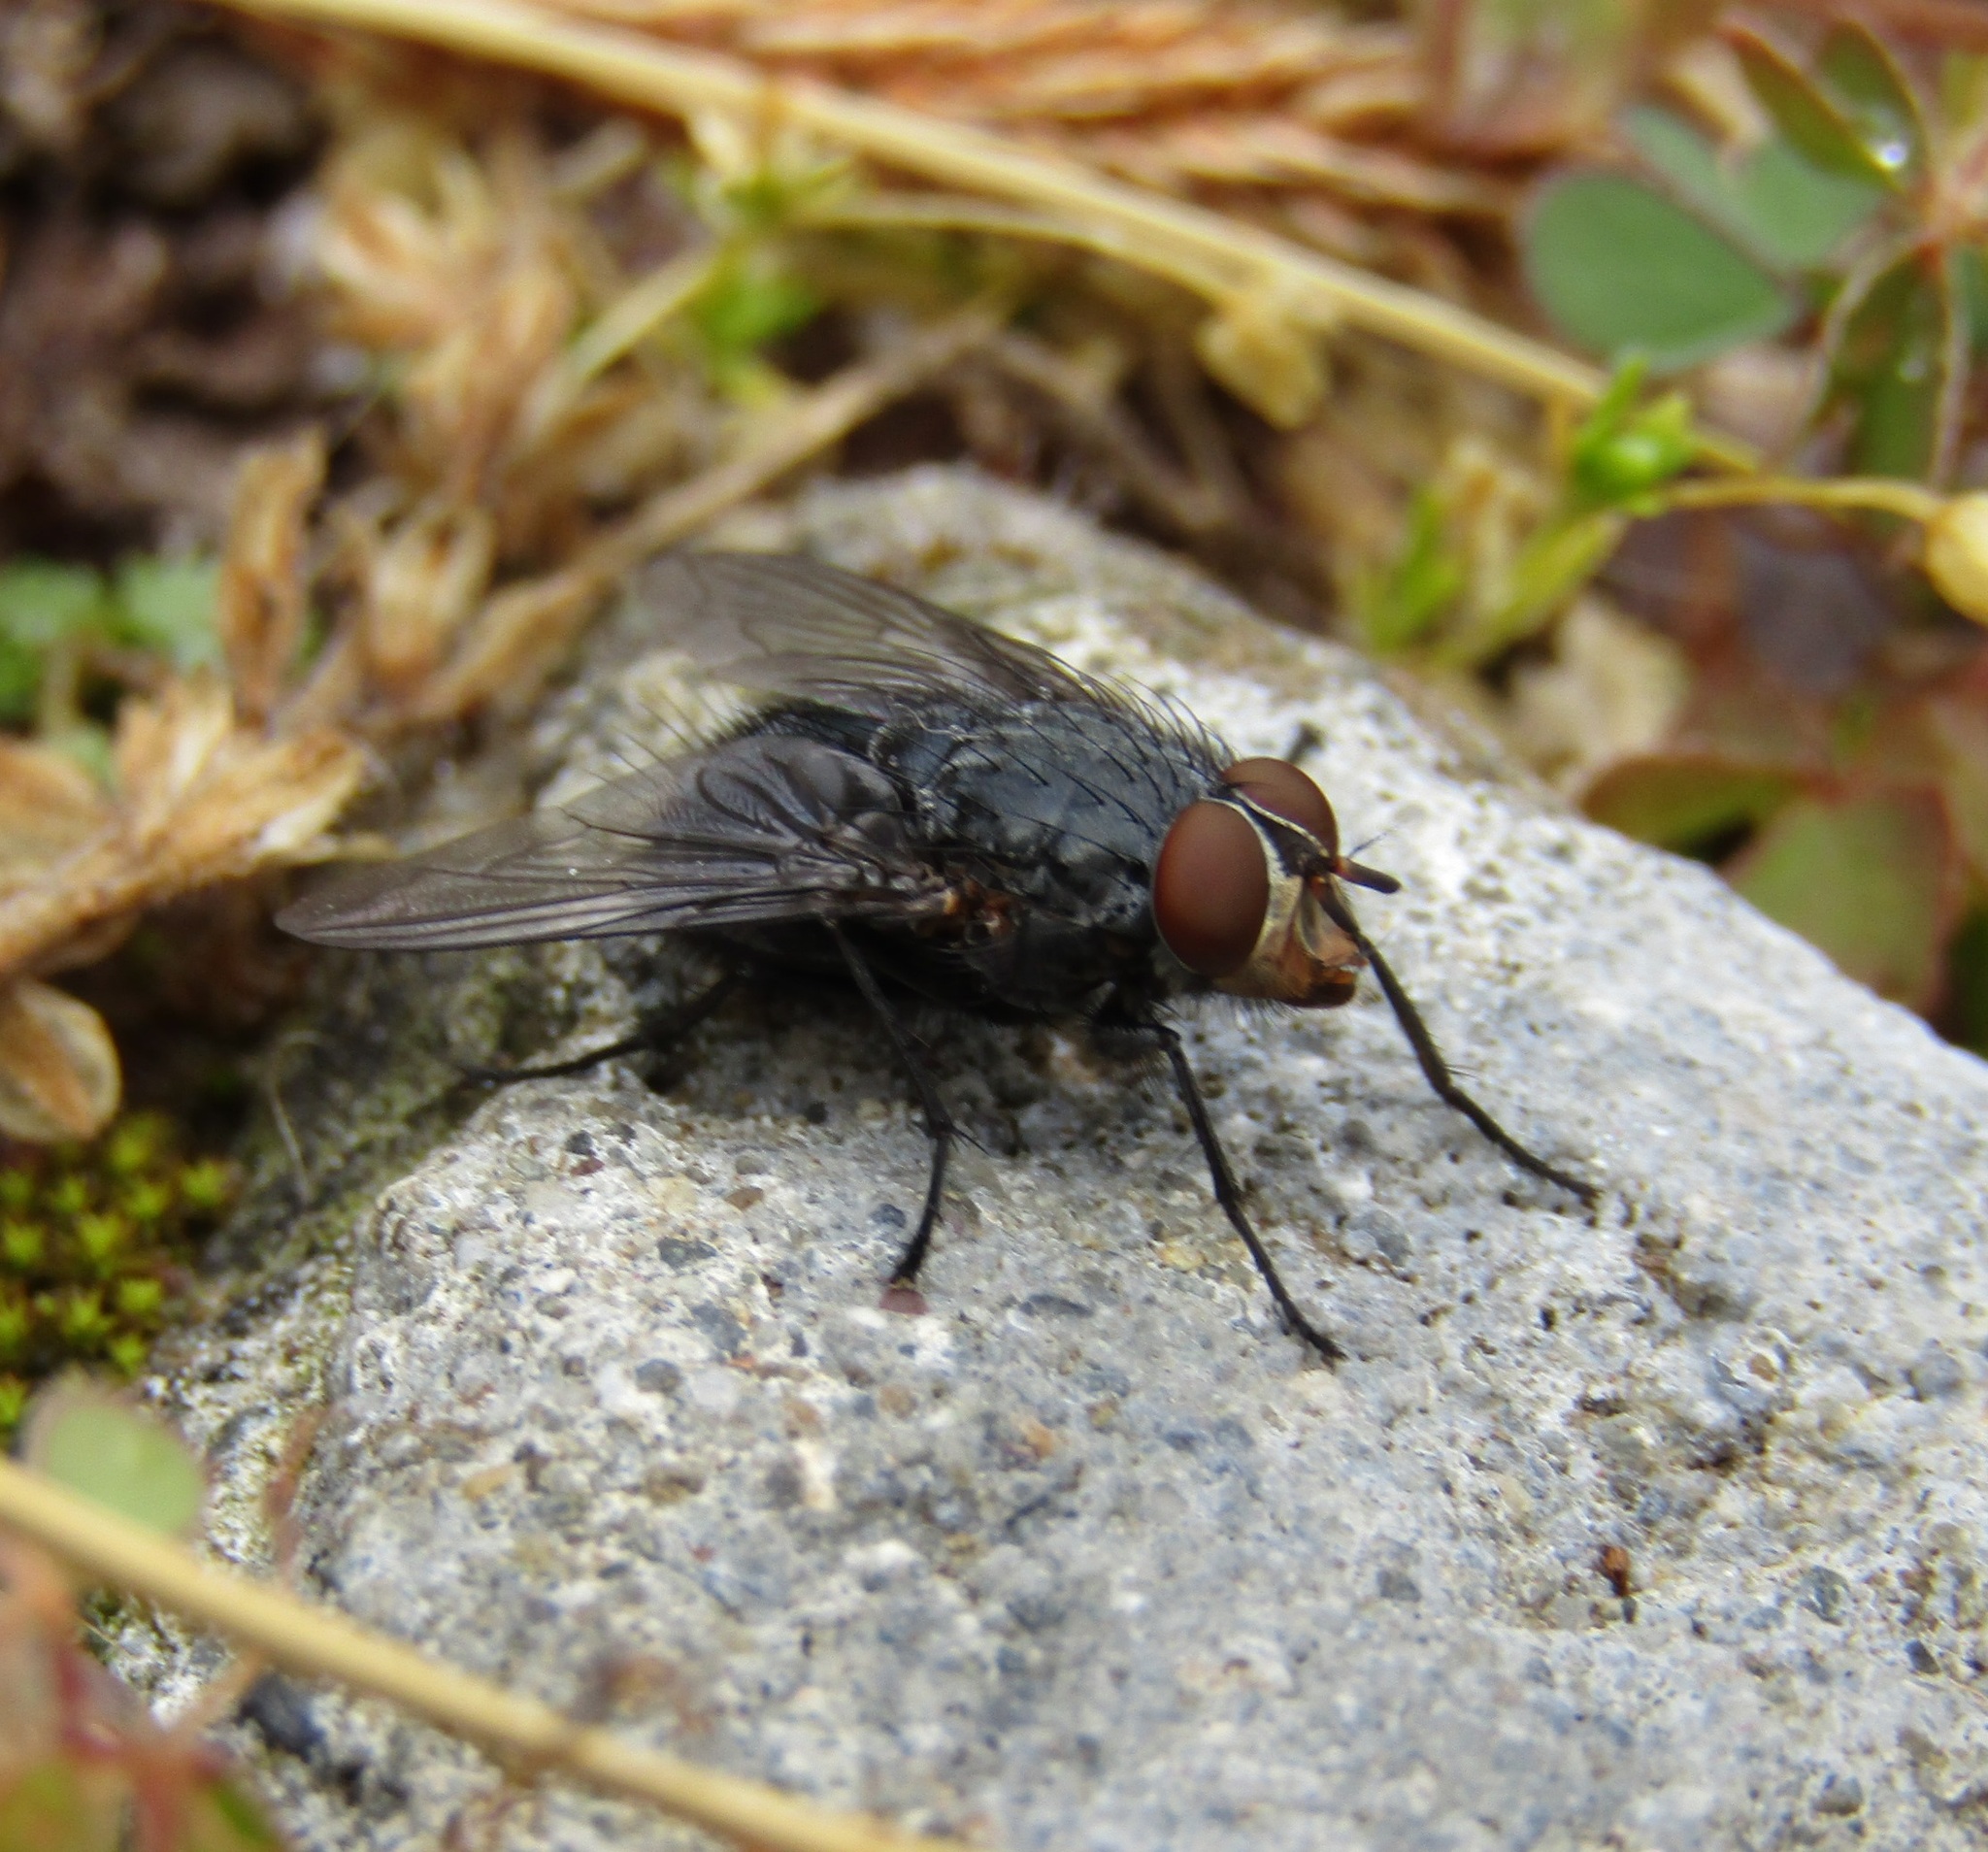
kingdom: Animalia
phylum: Arthropoda
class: Insecta
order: Diptera
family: Calliphoridae
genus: Calliphora
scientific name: Calliphora vicina
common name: Common blow flie
